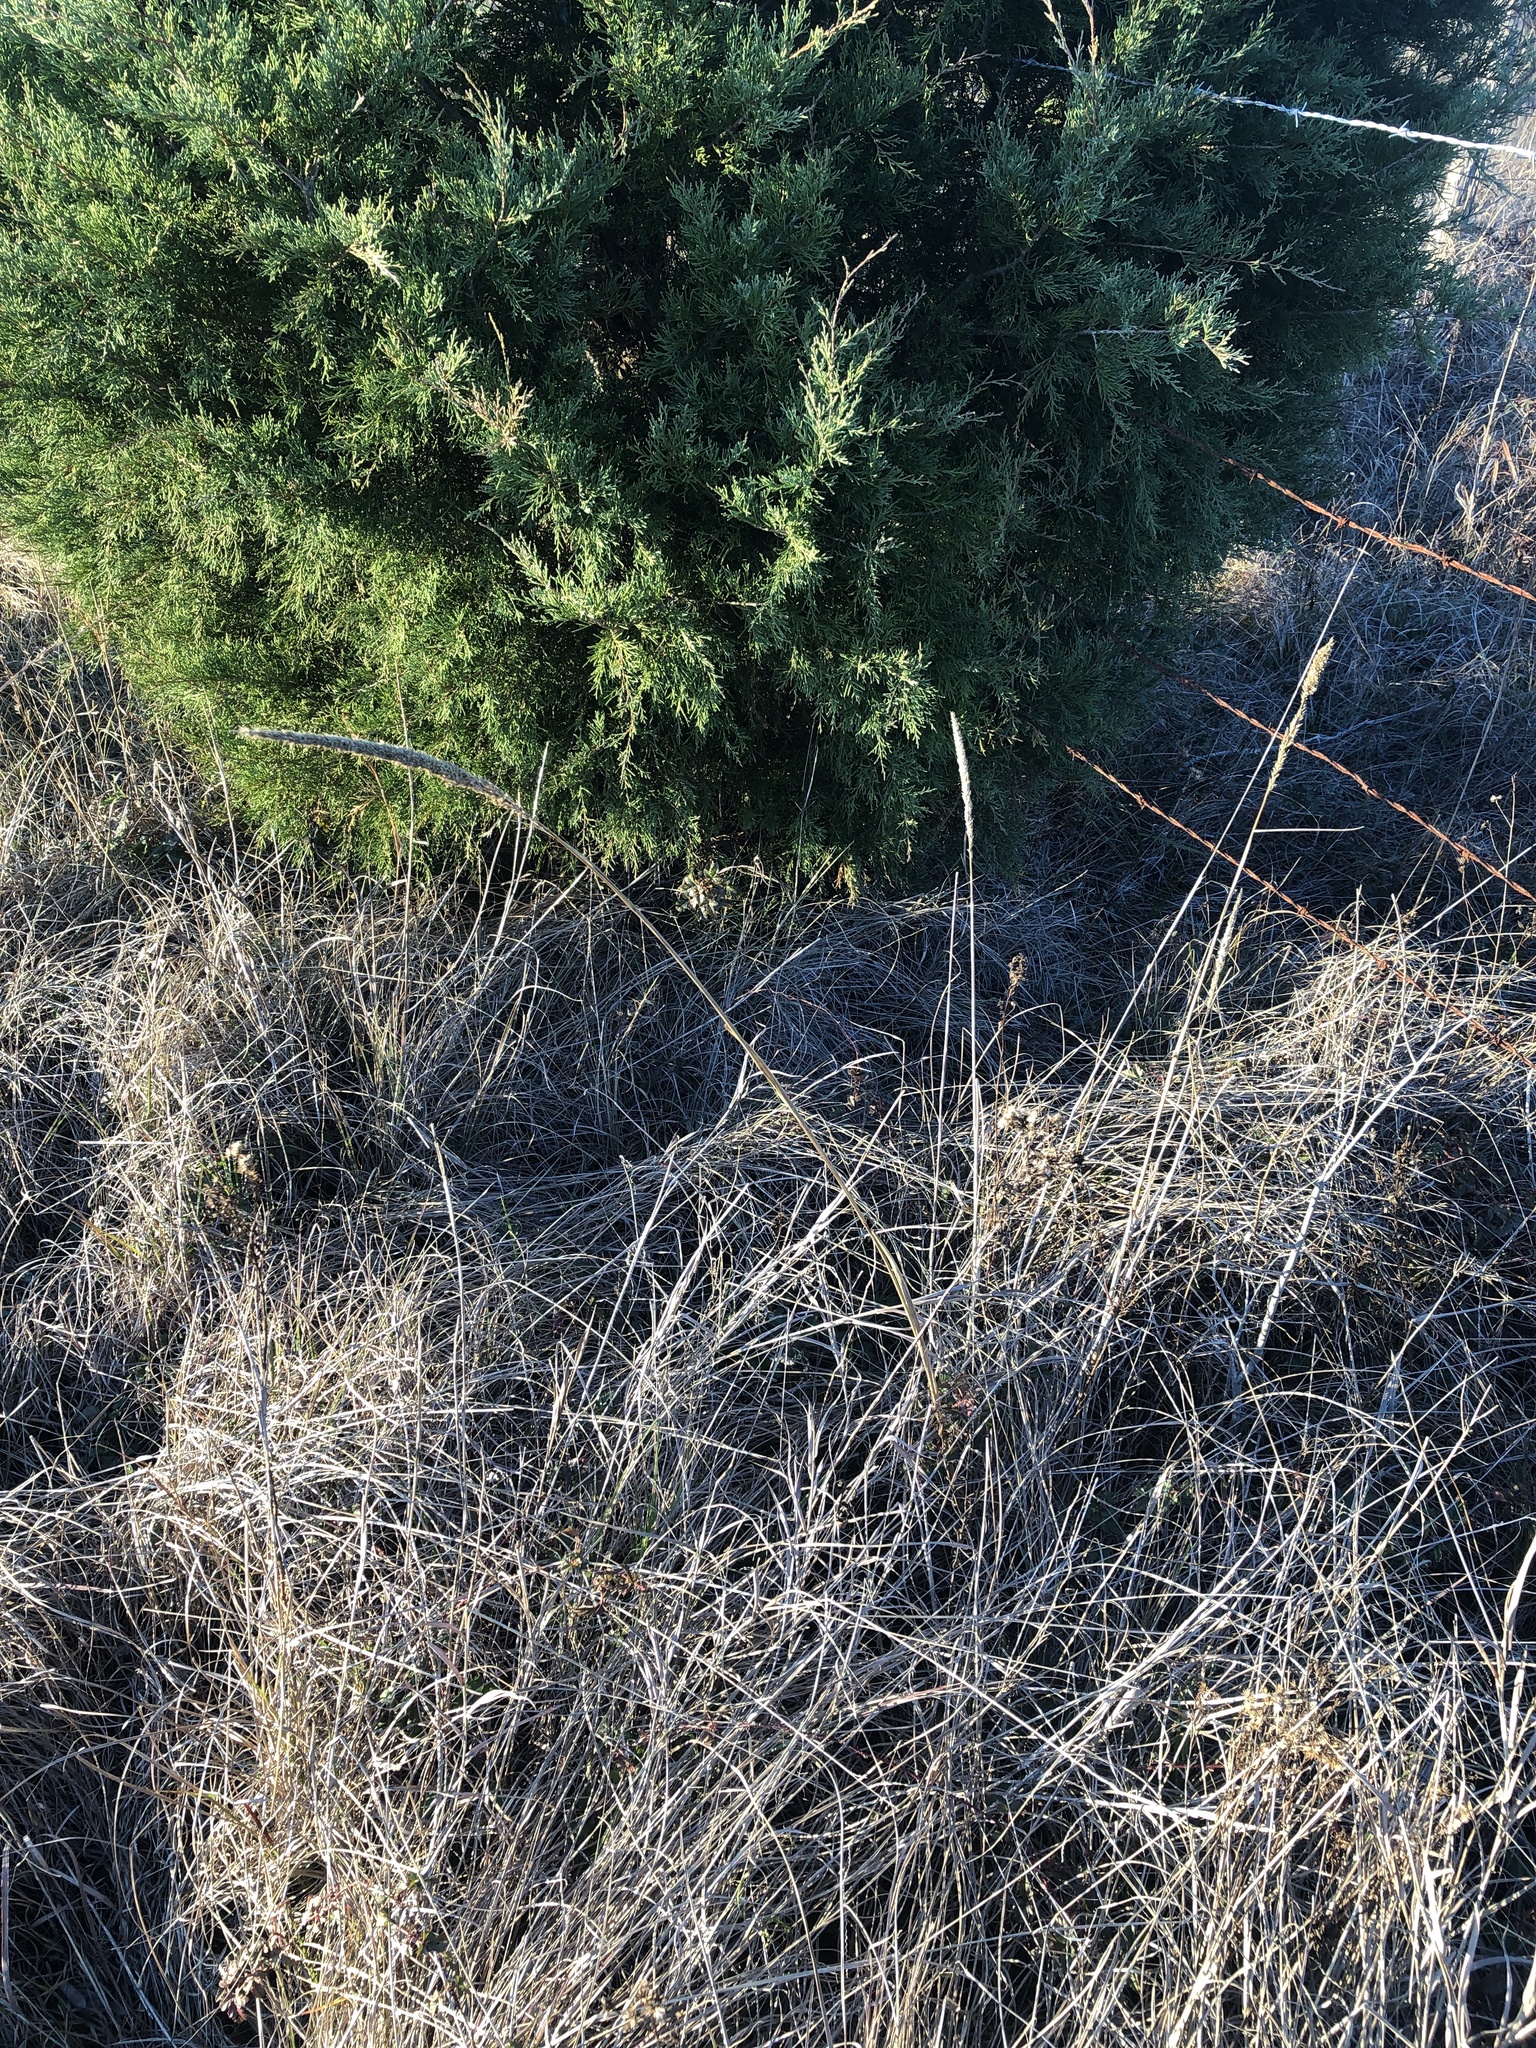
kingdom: Plantae
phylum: Tracheophyta
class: Liliopsida
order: Poales
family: Poaceae
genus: Tridens
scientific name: Tridens strictus
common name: Long-spike tridens
